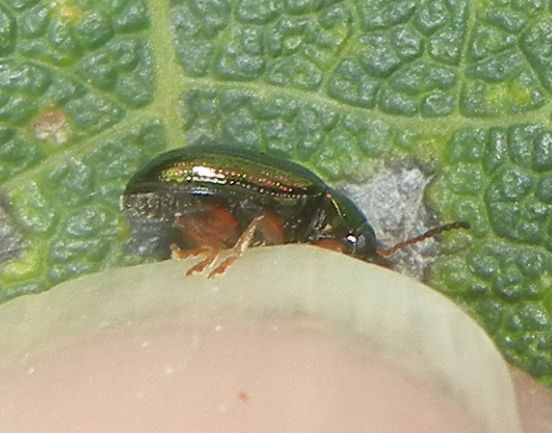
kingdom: Animalia
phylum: Arthropoda
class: Insecta
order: Coleoptera
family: Chrysomelidae
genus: Crepidodera
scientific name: Crepidodera aurea
